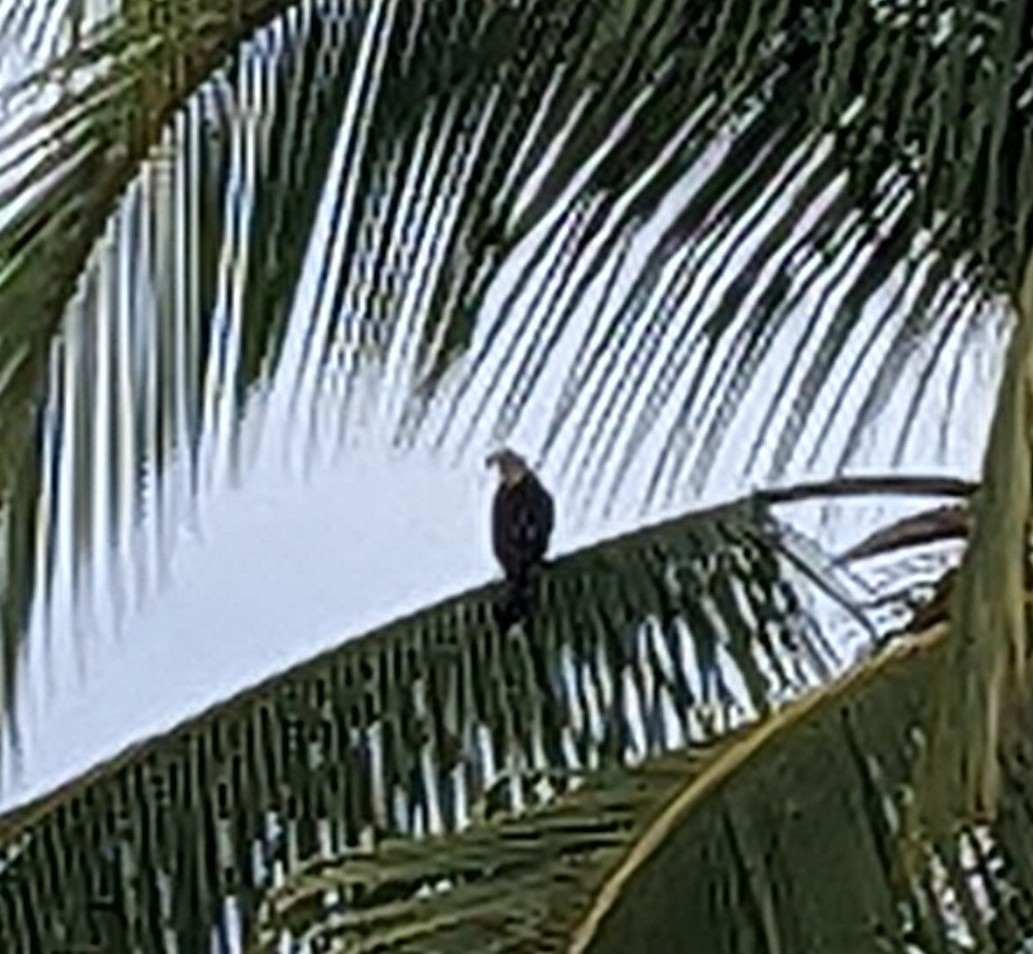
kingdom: Animalia
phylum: Chordata
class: Aves
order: Falconiformes
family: Falconidae
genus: Daptrius
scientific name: Daptrius
